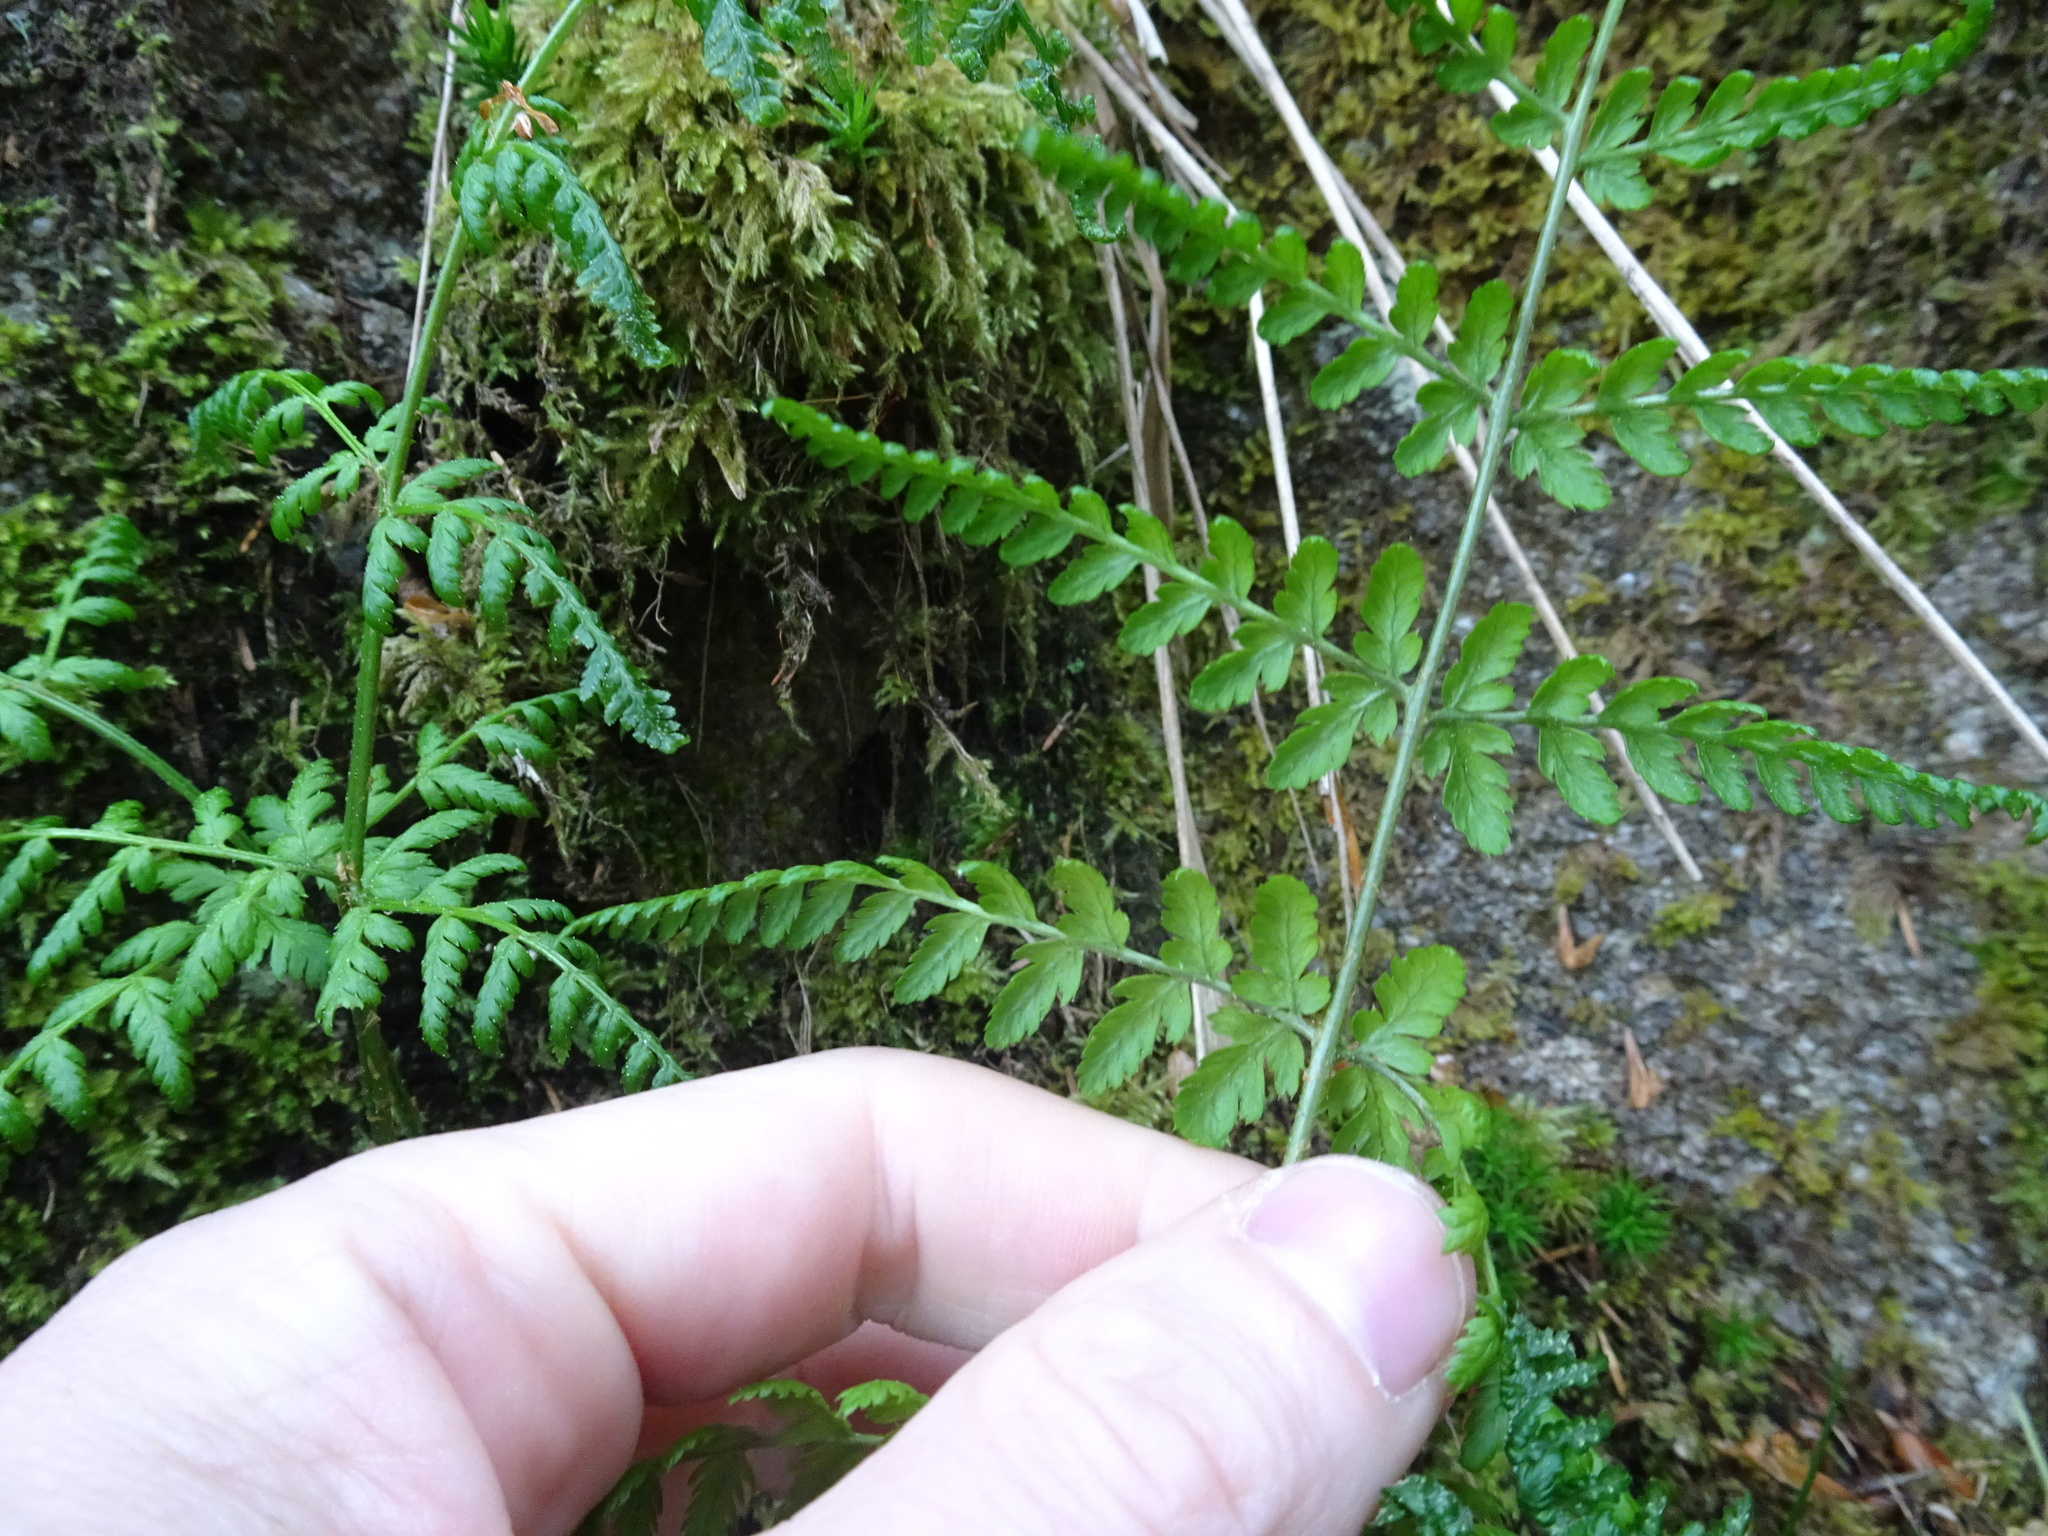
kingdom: Plantae
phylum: Tracheophyta
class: Polypodiopsida
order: Polypodiales
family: Dryopteridaceae
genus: Dryopteris
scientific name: Dryopteris dilatata
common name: Broad buckler-fern
